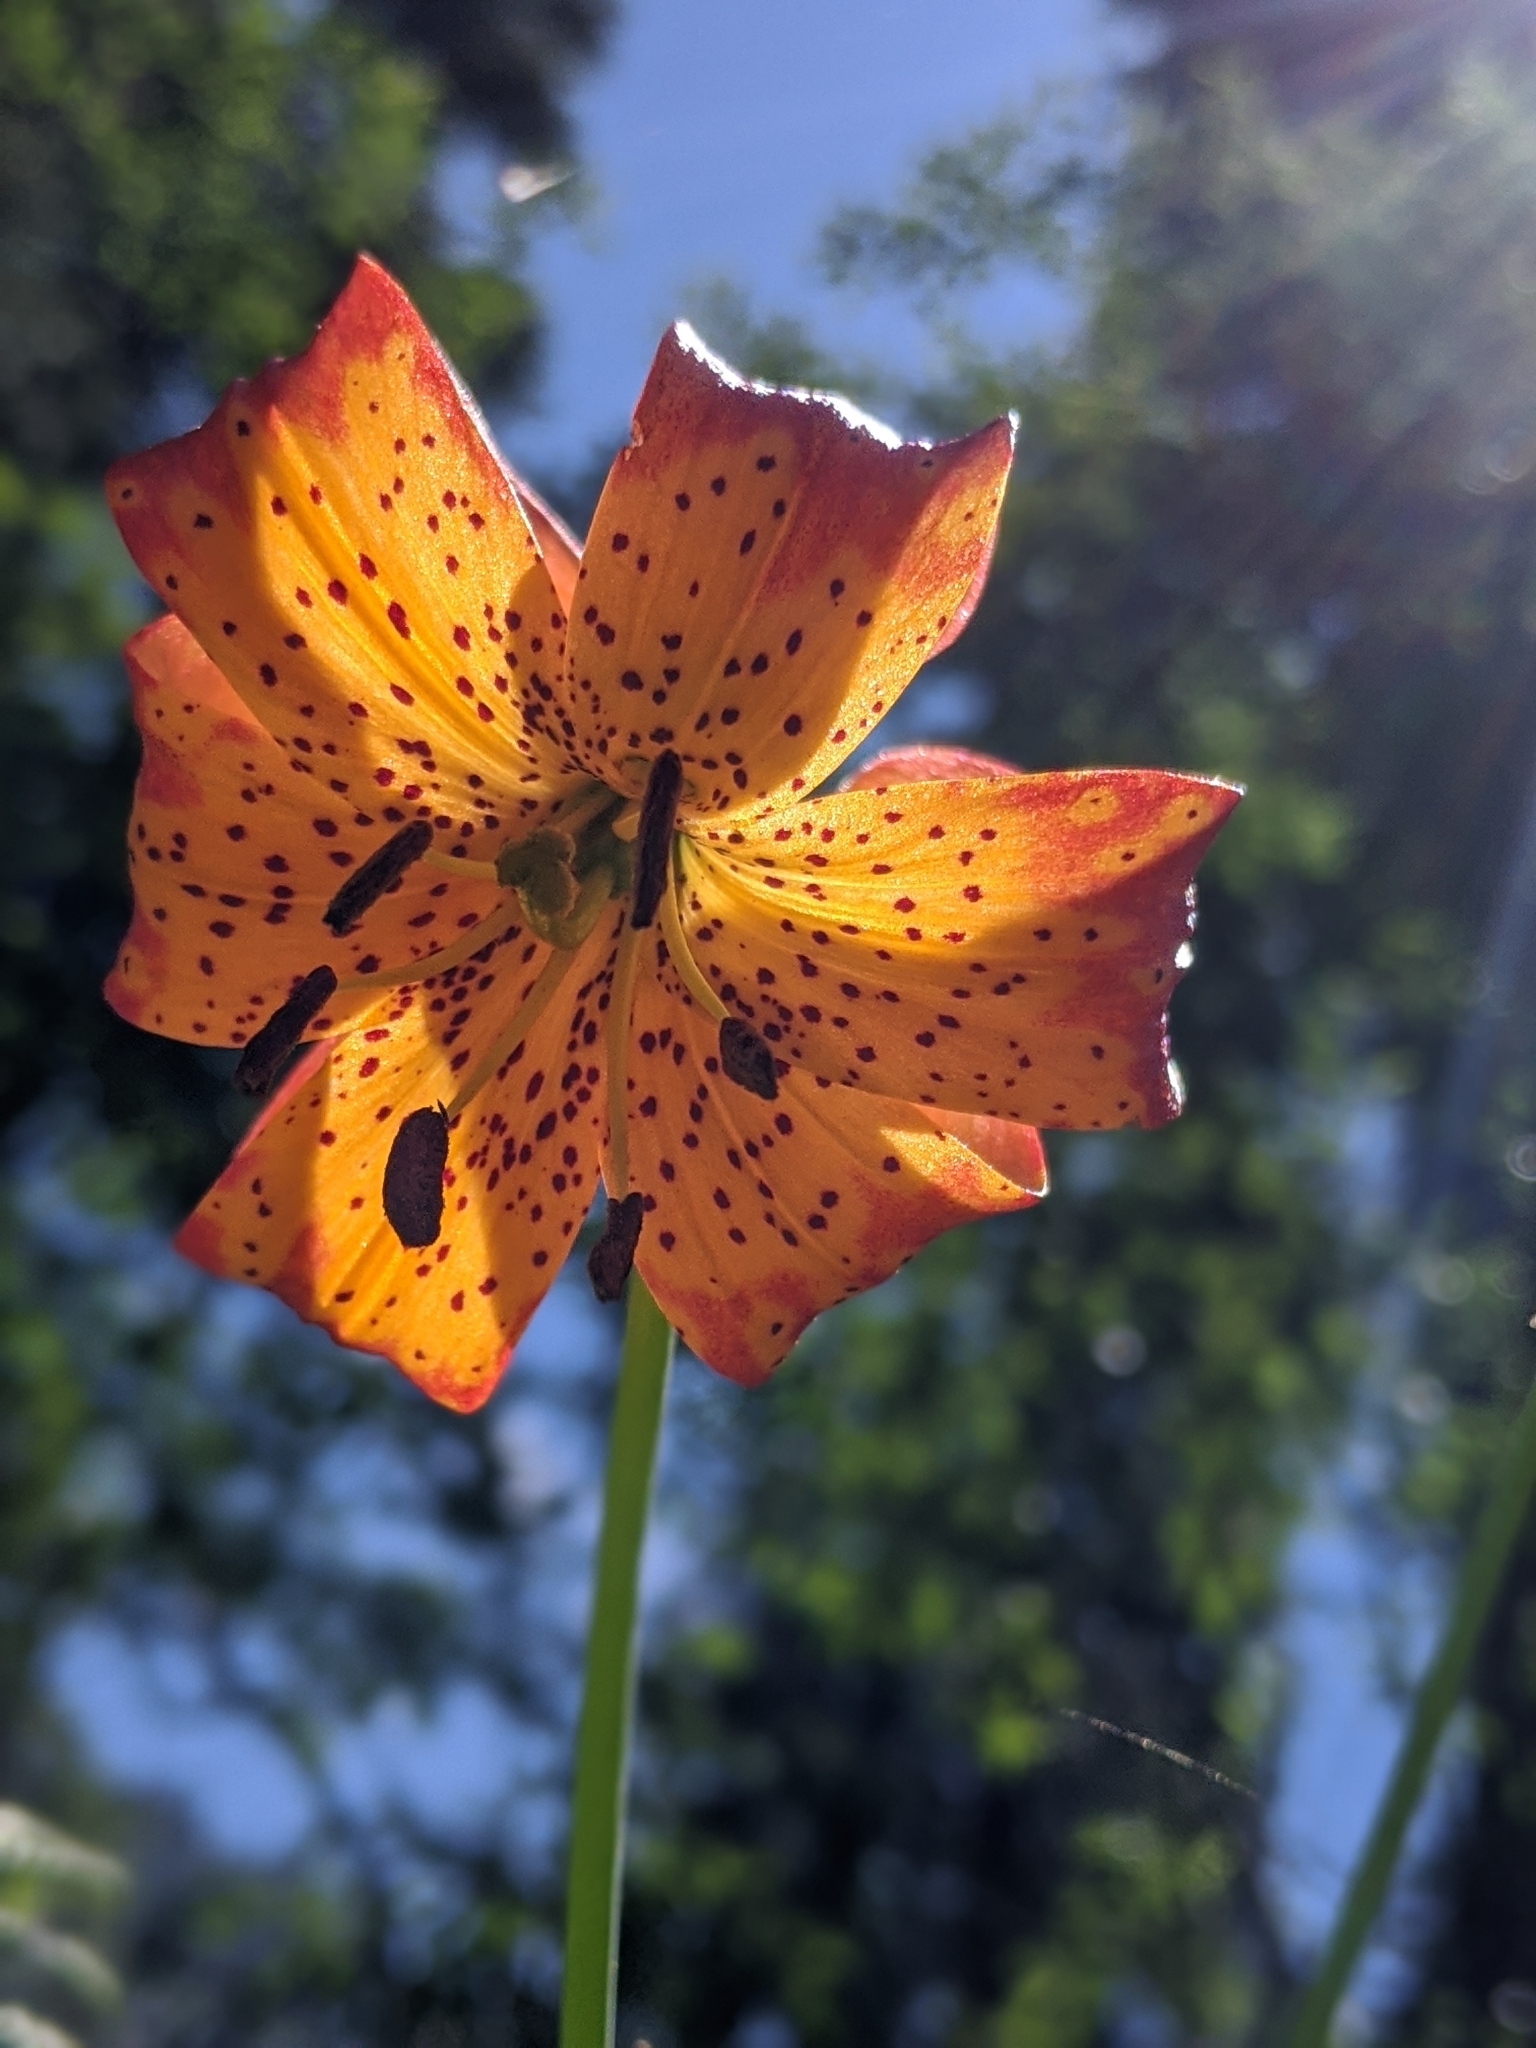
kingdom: Plantae
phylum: Tracheophyta
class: Liliopsida
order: Liliales
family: Liliaceae
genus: Lilium
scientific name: Lilium pardalinum
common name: Panther lily
